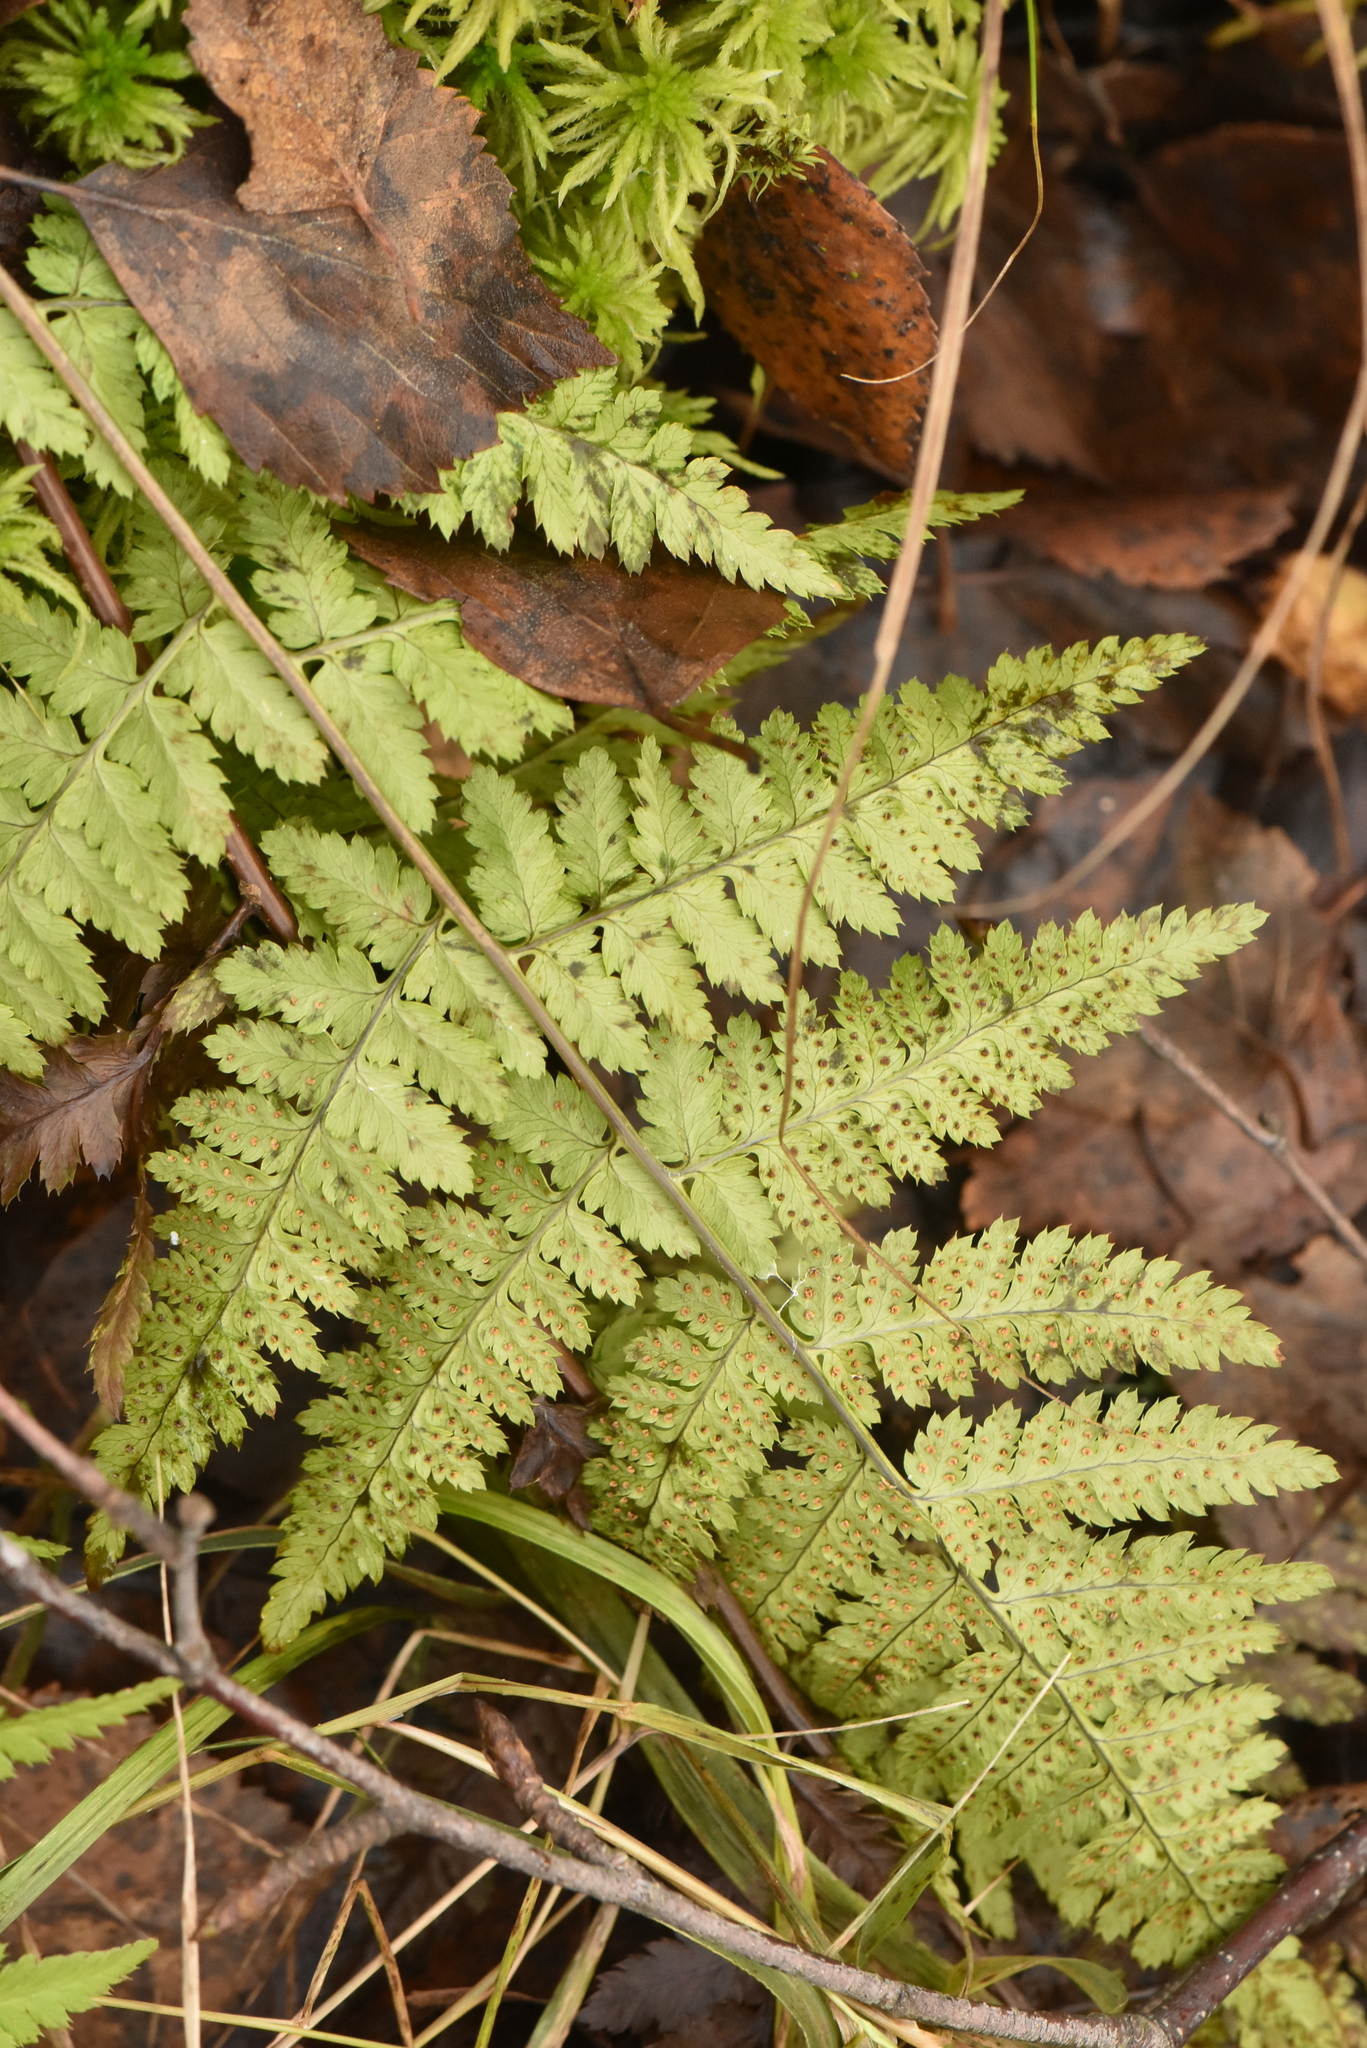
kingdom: Plantae
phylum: Tracheophyta
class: Polypodiopsida
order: Polypodiales
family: Dryopteridaceae
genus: Dryopteris
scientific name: Dryopteris carthusiana
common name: Narrow buckler-fern
